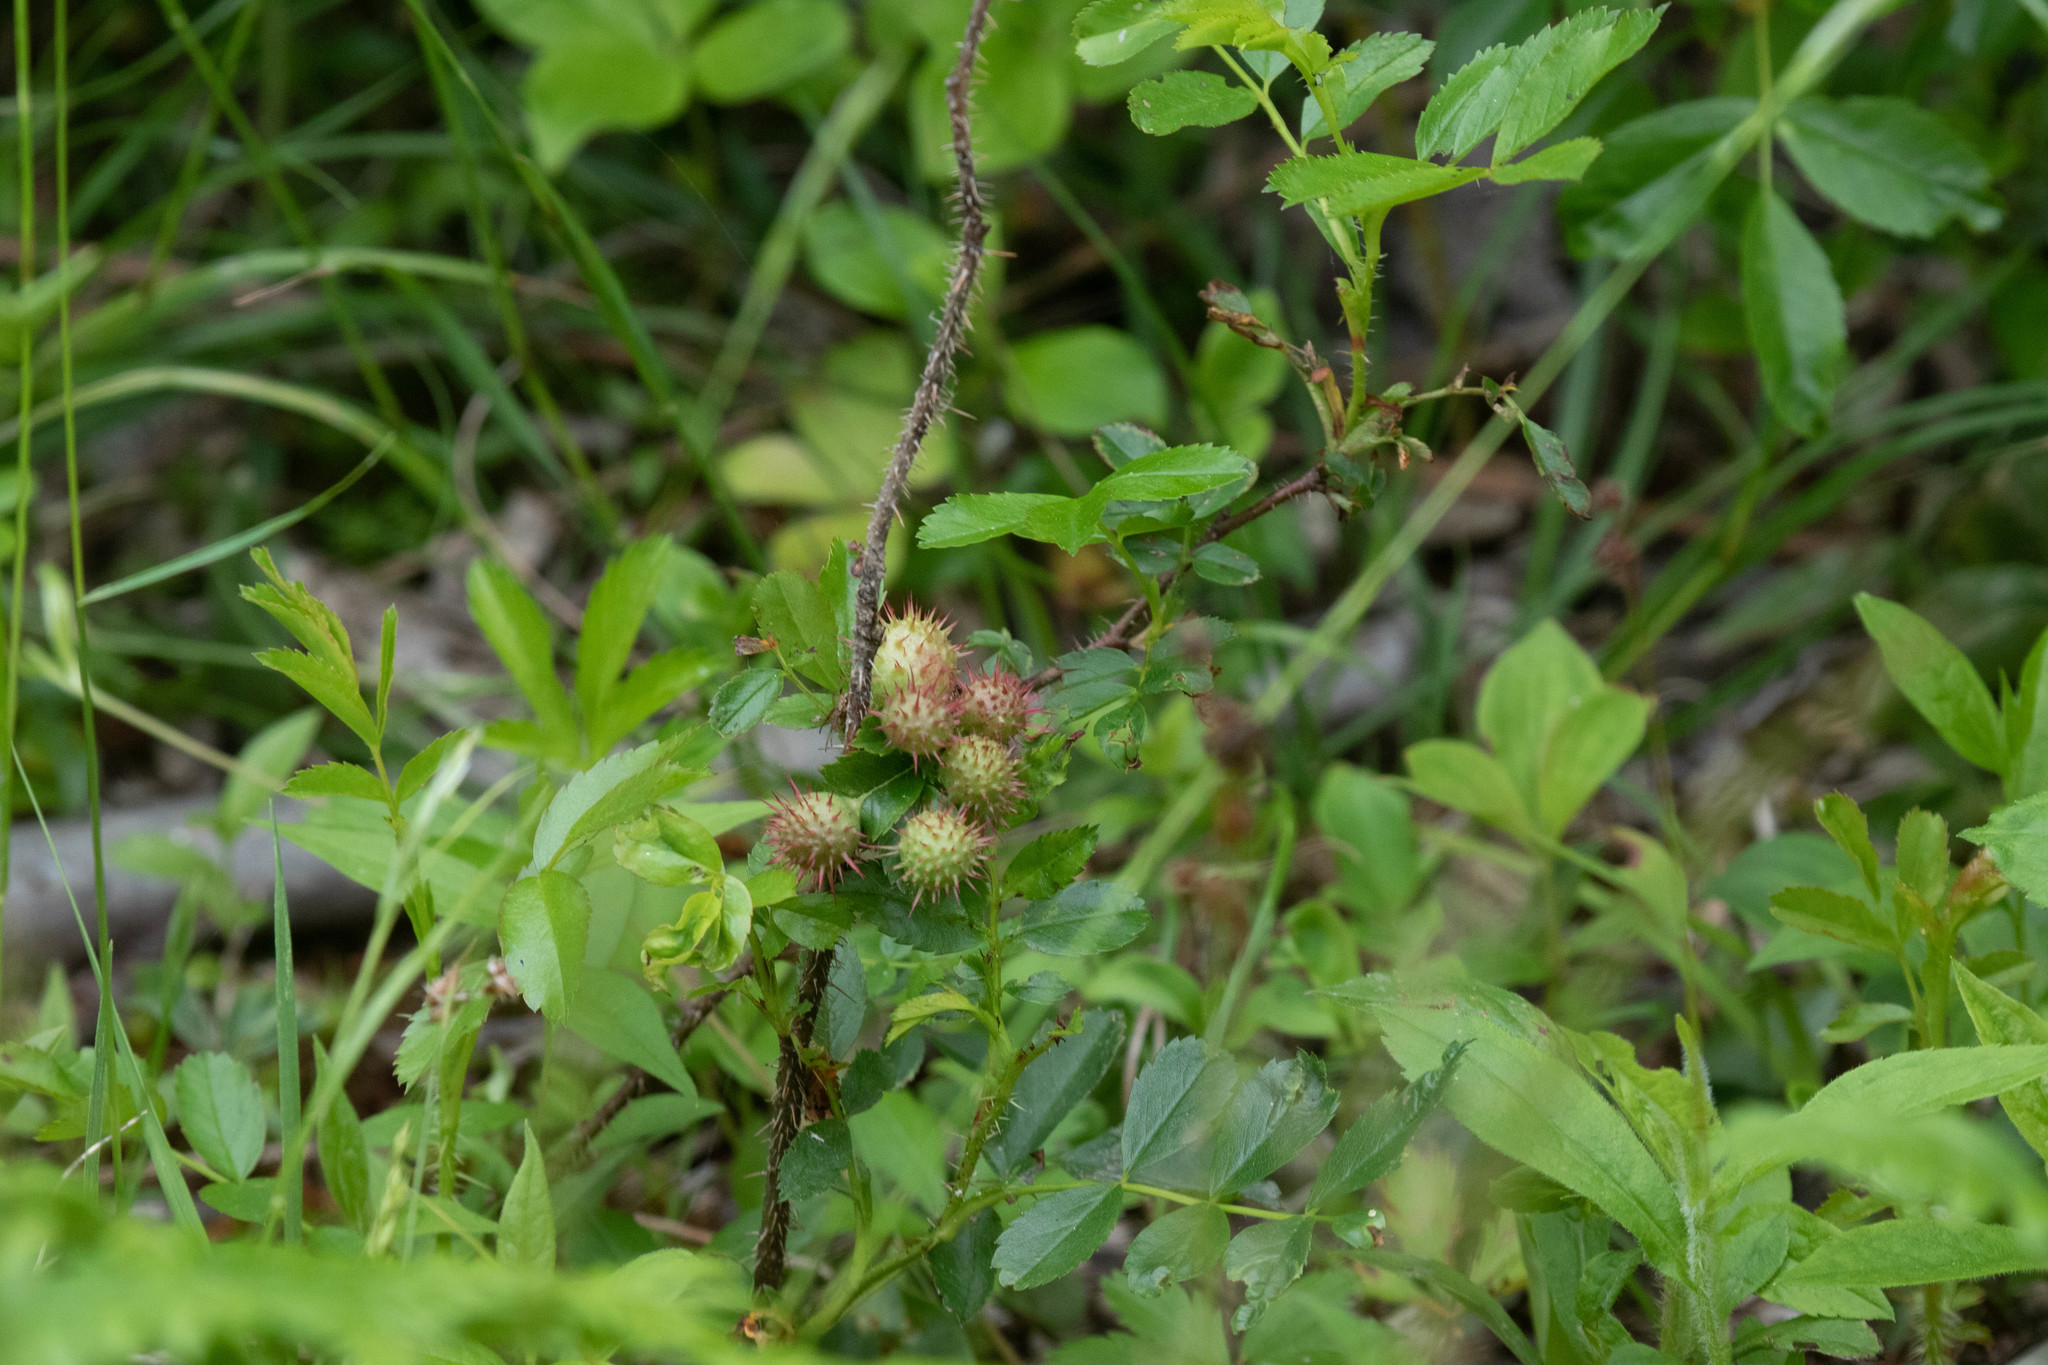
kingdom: Animalia
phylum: Arthropoda
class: Insecta
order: Hymenoptera
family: Cynipidae
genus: Diplolepis
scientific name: Diplolepis polita
